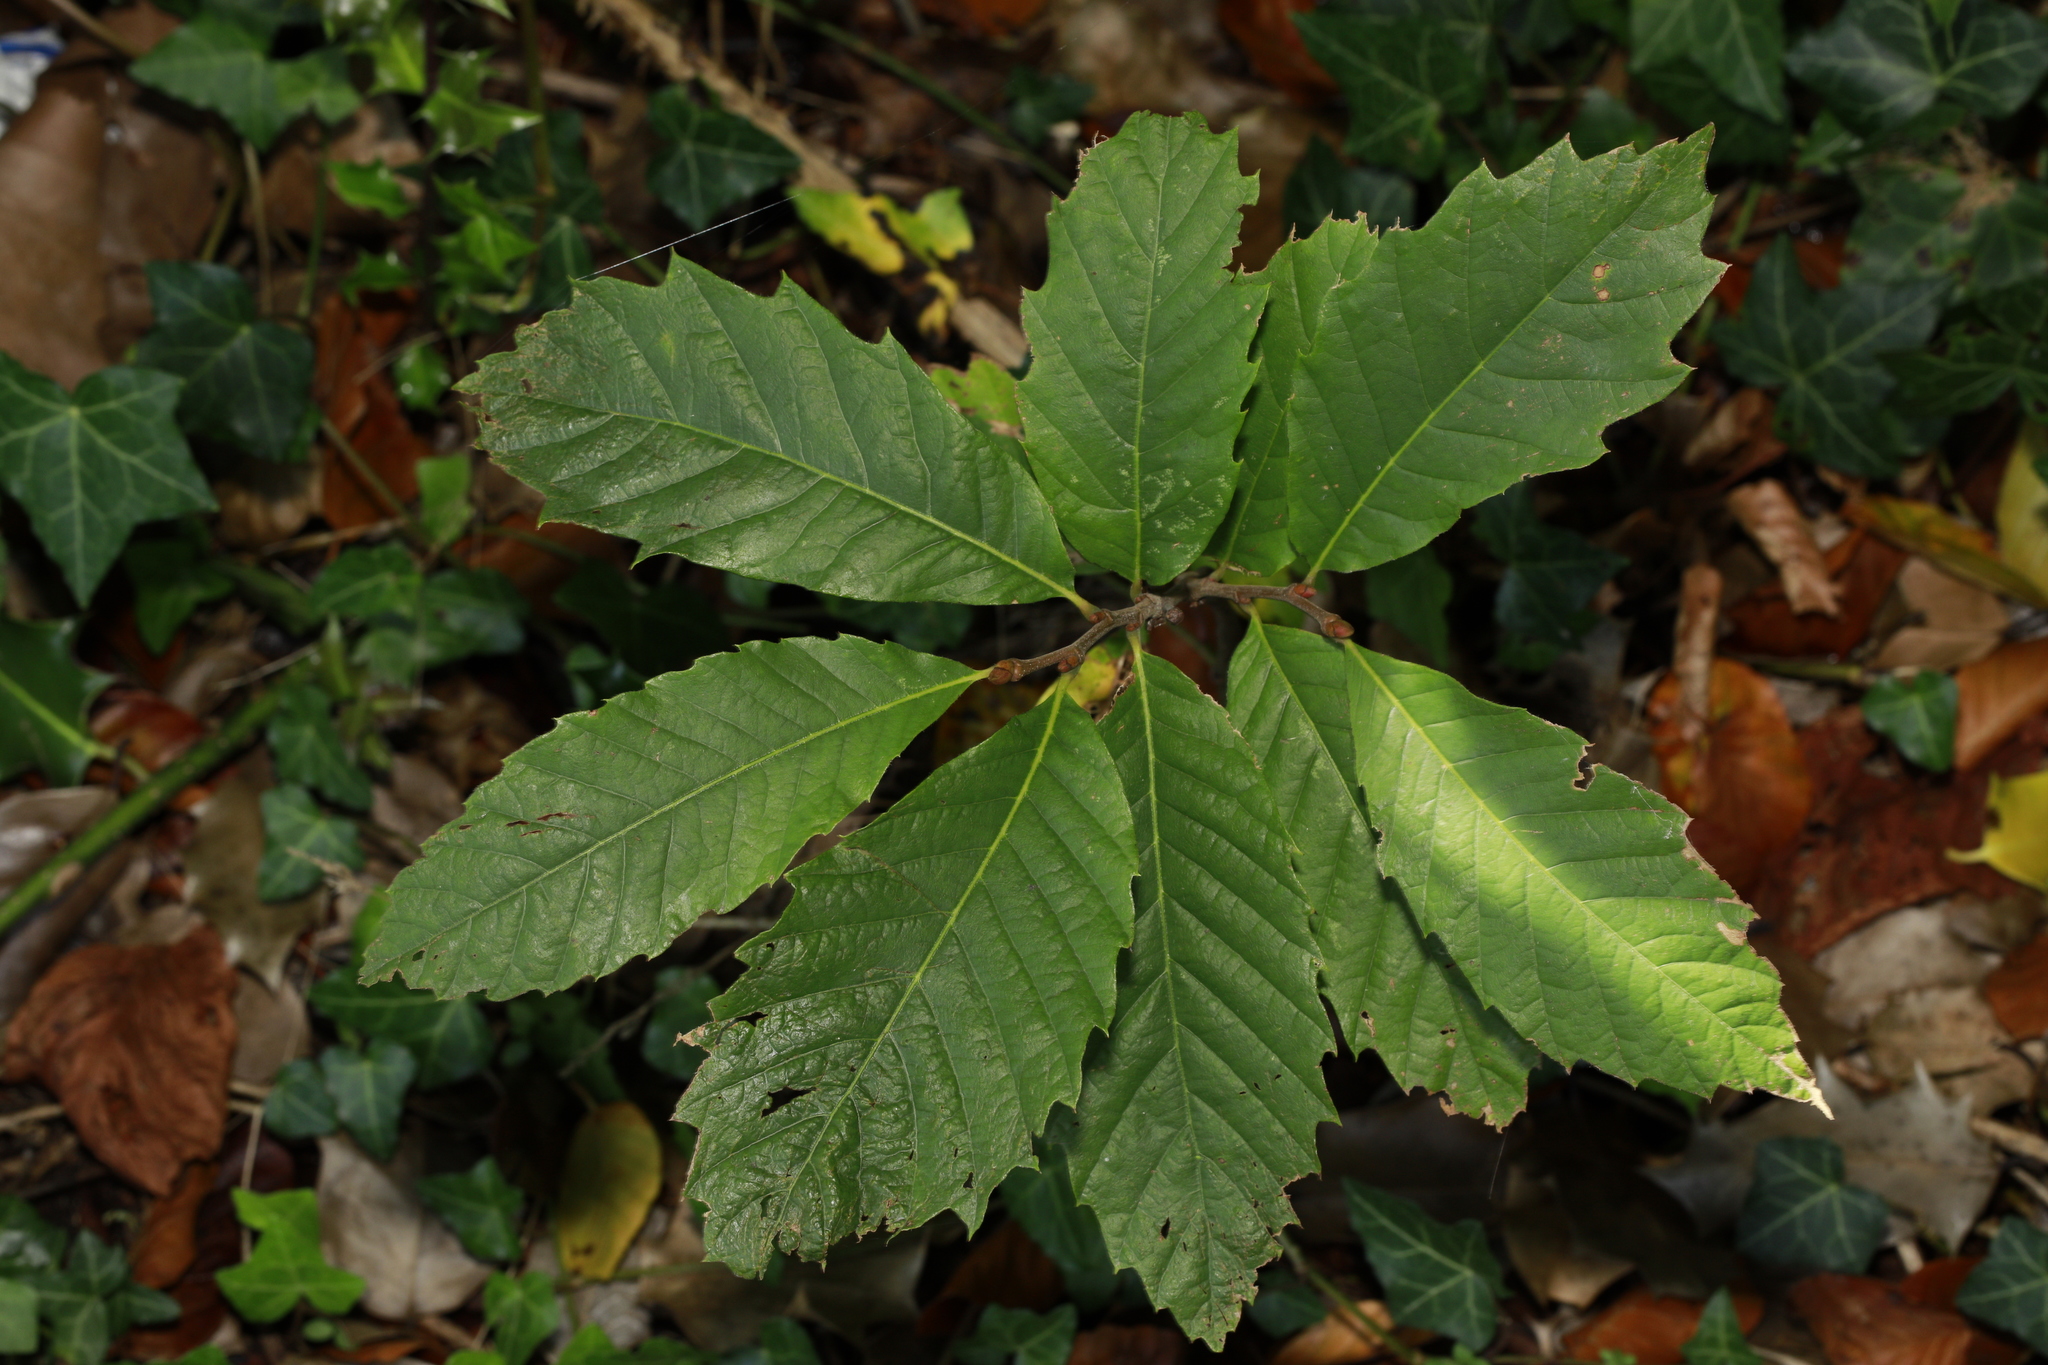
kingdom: Plantae
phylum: Tracheophyta
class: Magnoliopsida
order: Fagales
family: Fagaceae
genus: Castanea
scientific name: Castanea sativa
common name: Sweet chestnut
